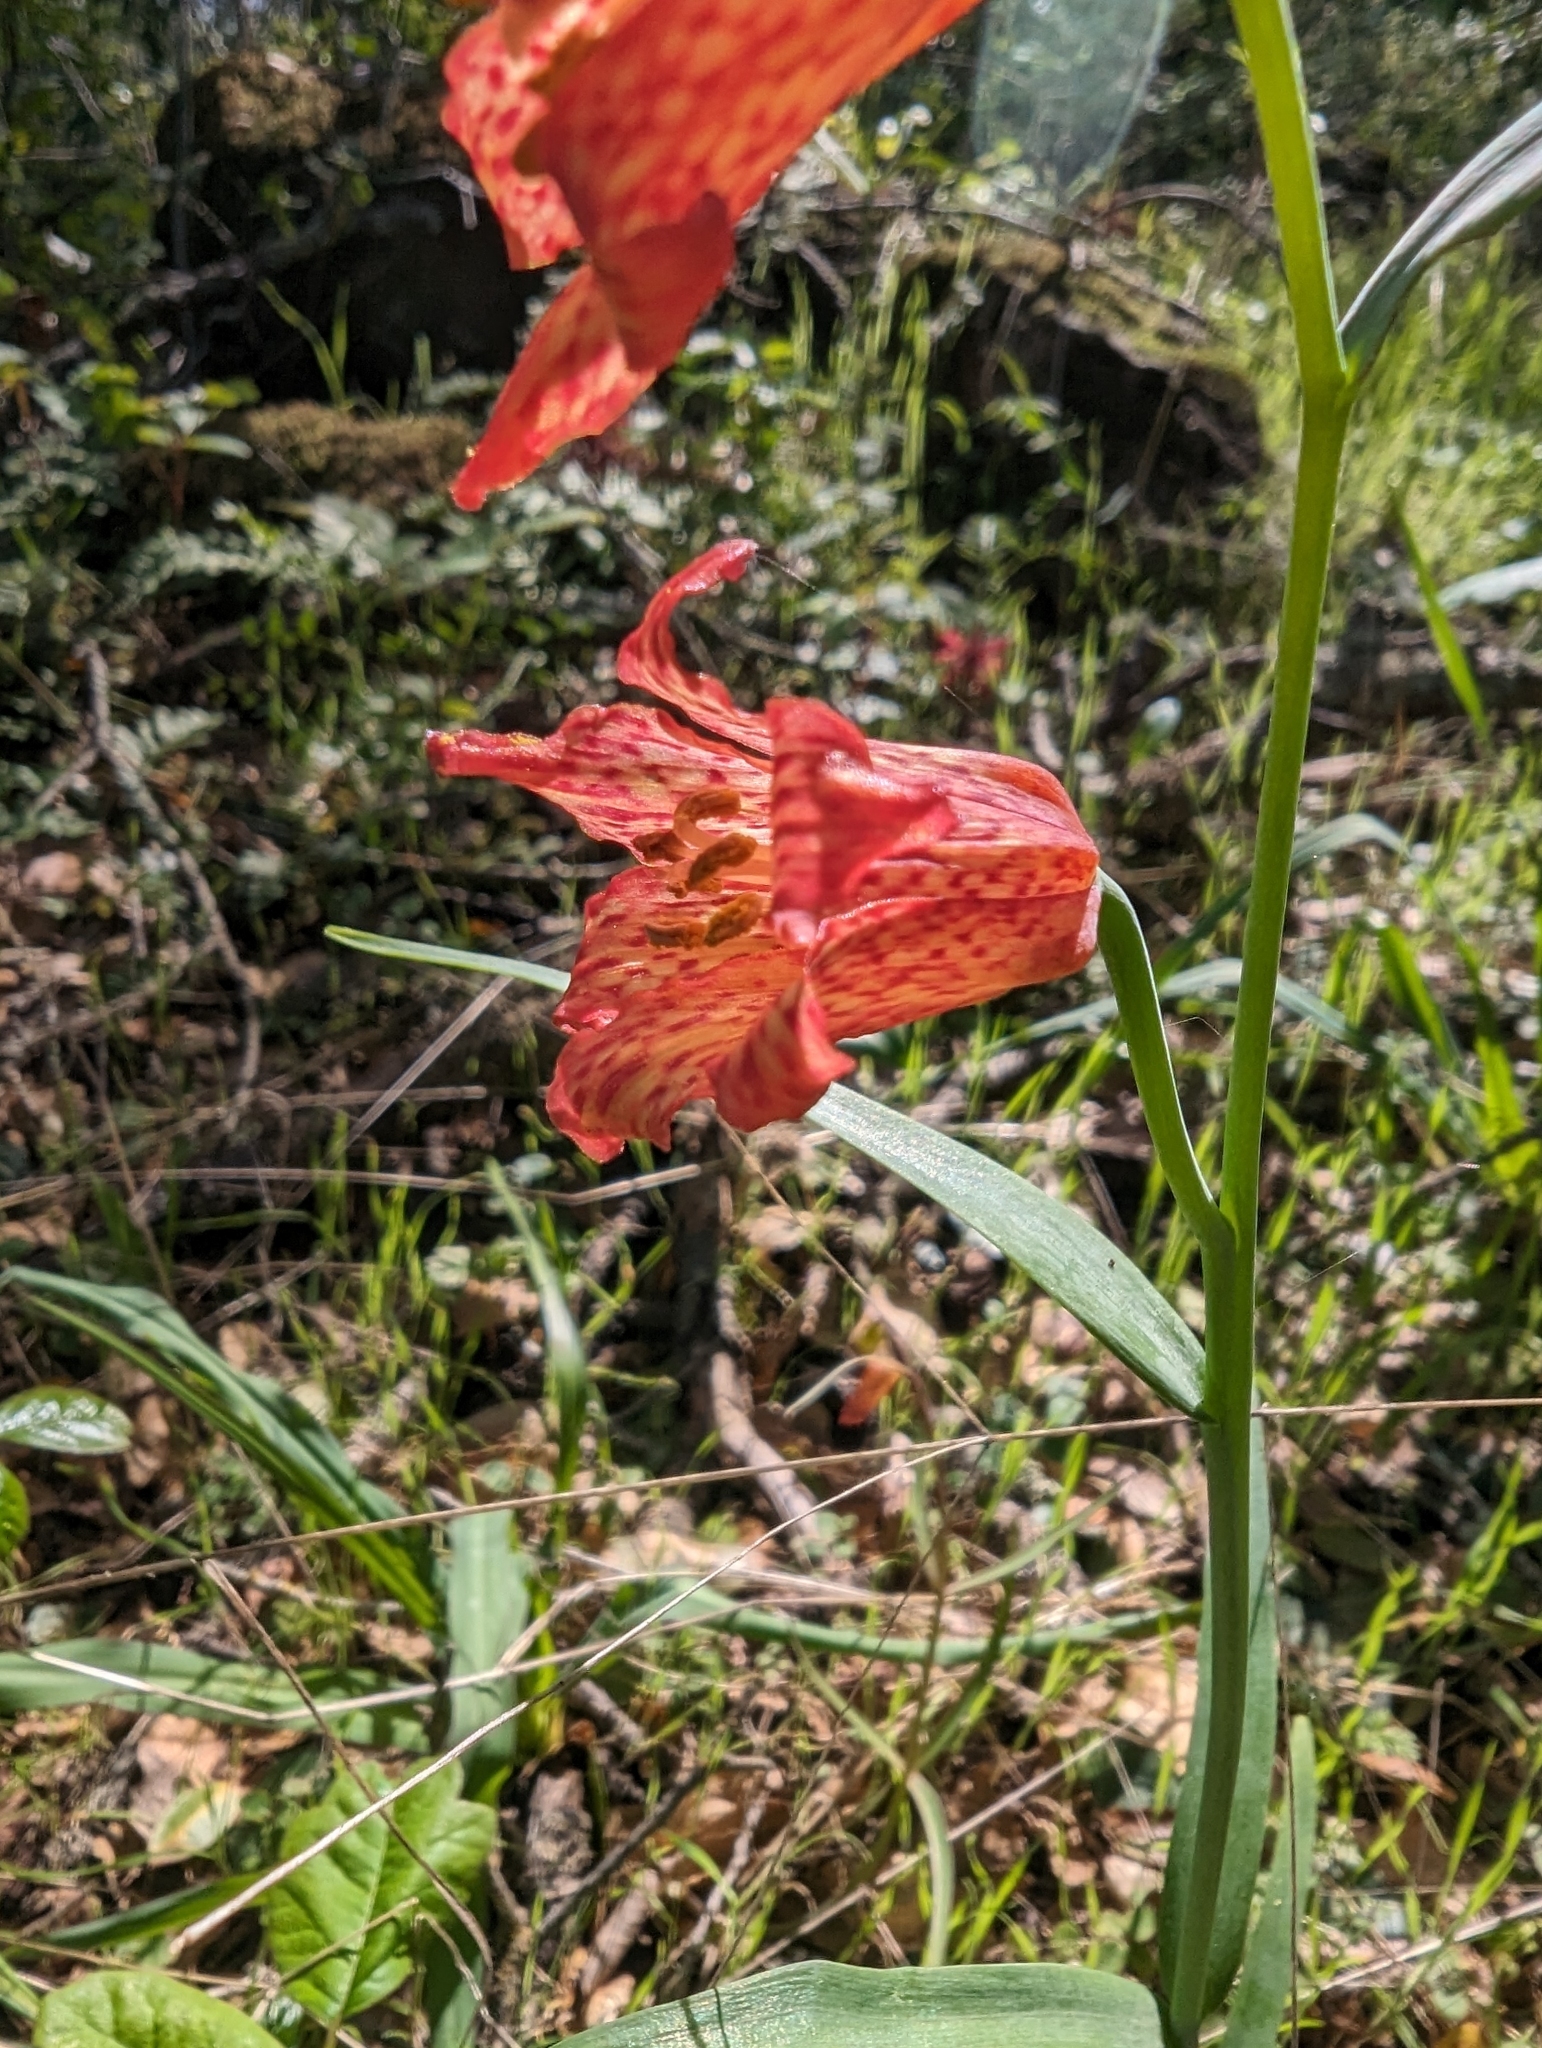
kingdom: Plantae
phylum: Tracheophyta
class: Liliopsida
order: Liliales
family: Liliaceae
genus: Fritillaria
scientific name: Fritillaria recurva
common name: Scarlet fritillary
